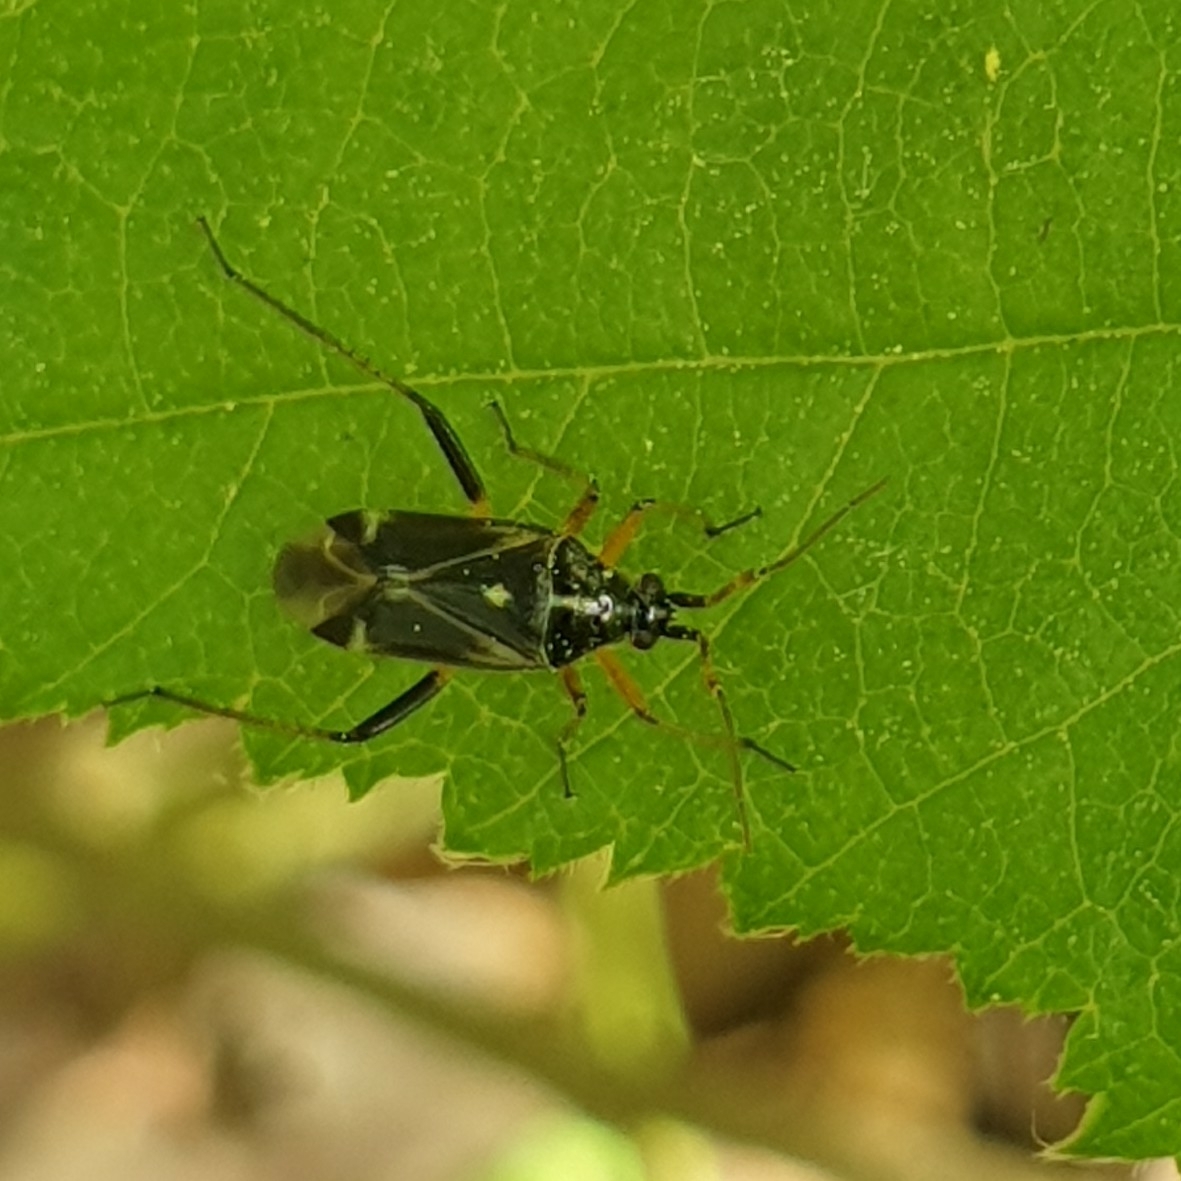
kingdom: Animalia
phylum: Arthropoda
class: Insecta
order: Hemiptera
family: Miridae
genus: Harpocera
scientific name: Harpocera thoracica
